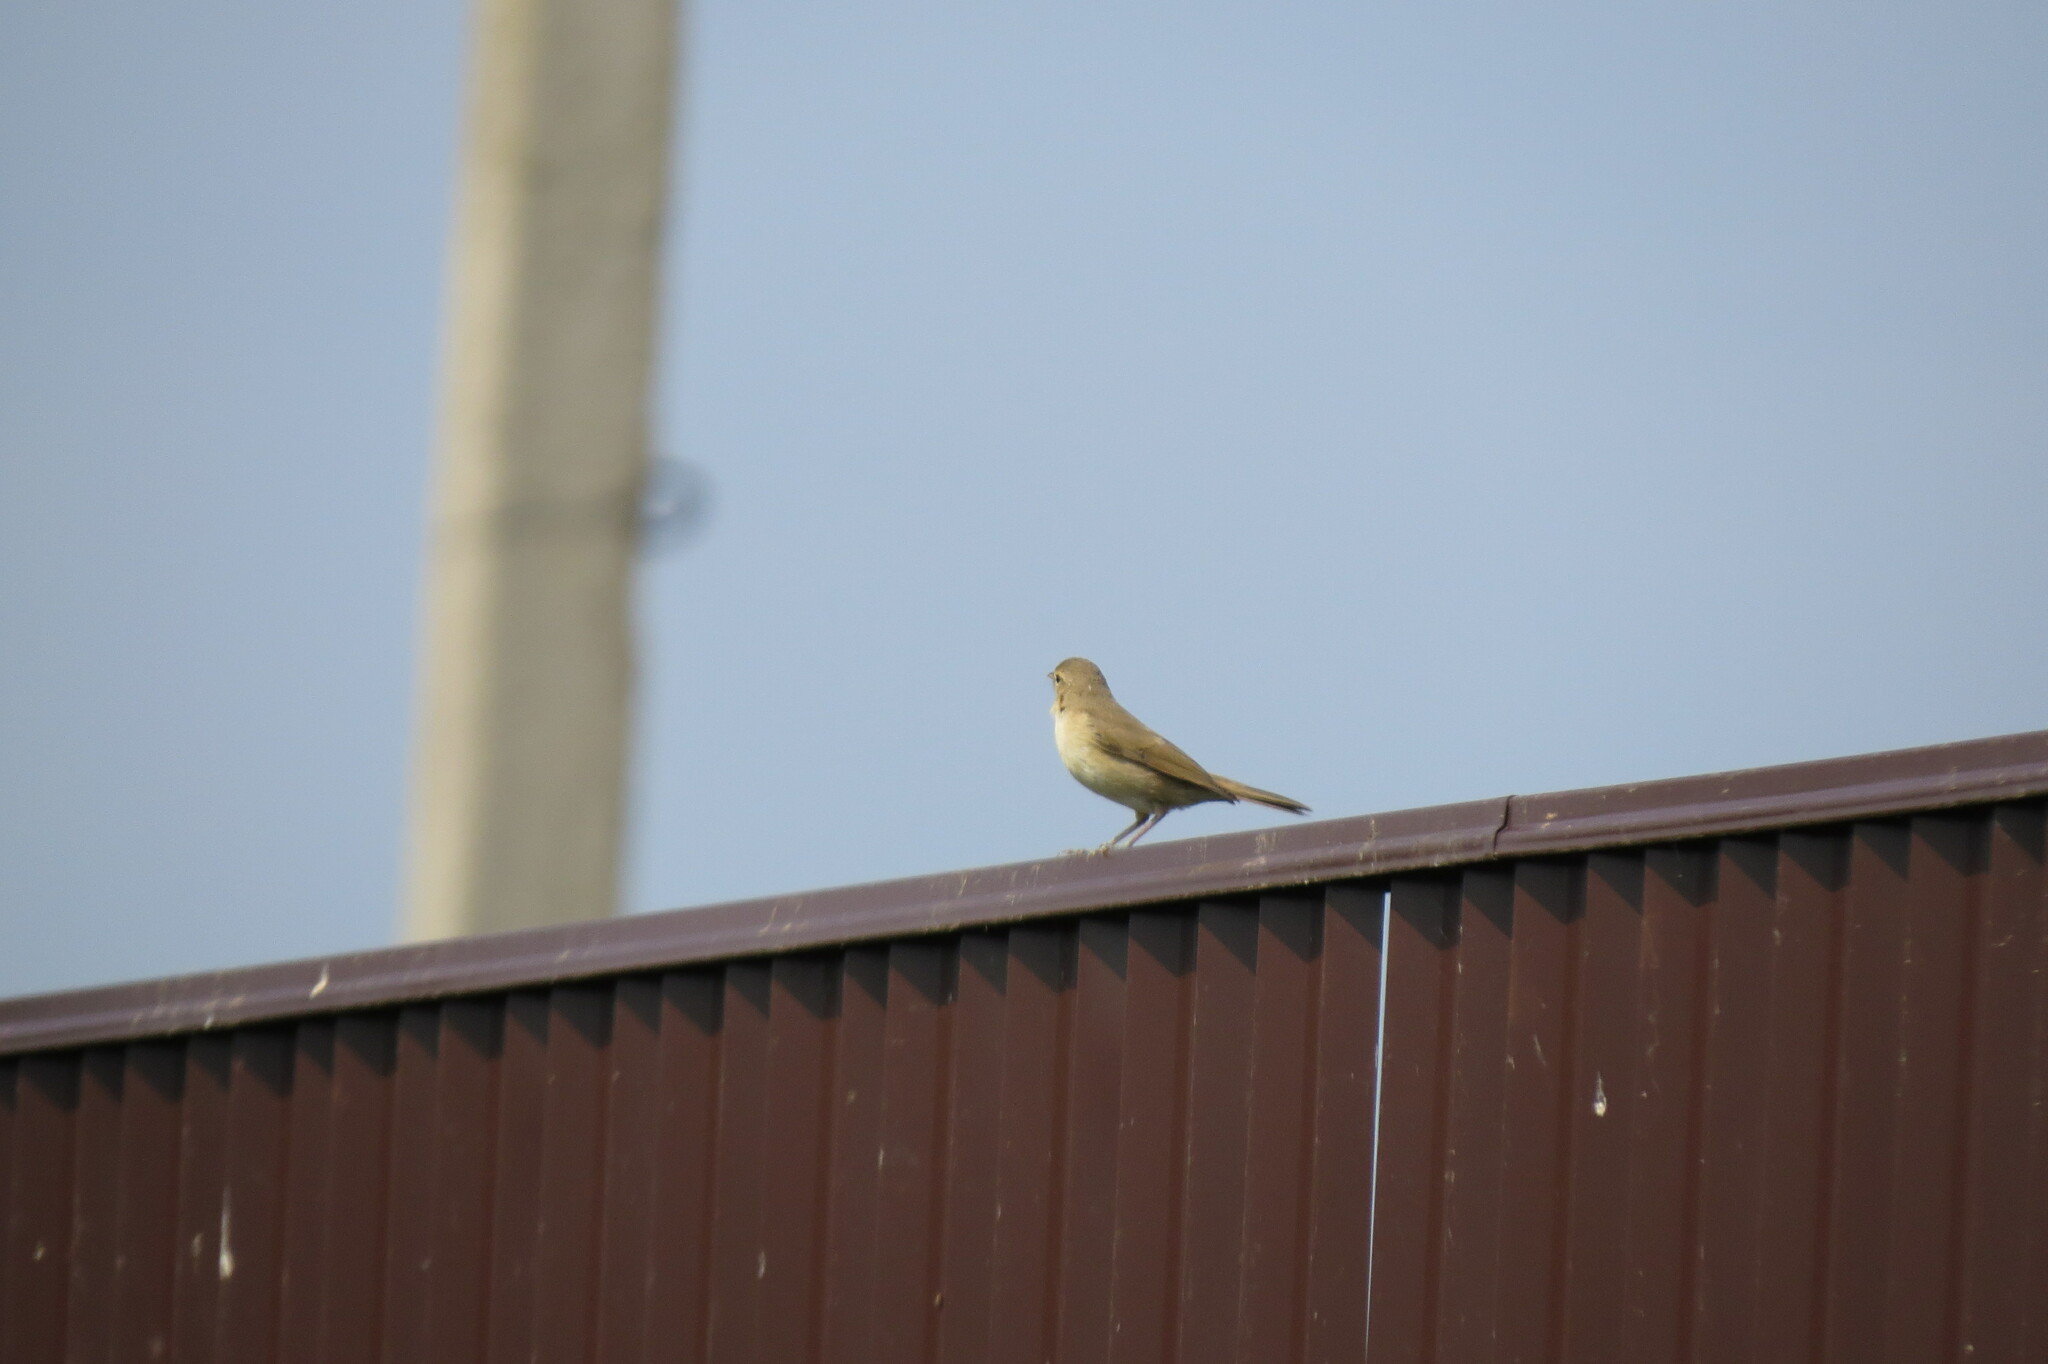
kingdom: Animalia
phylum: Chordata
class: Aves
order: Passeriformes
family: Acrocephalidae
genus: Iduna
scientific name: Iduna caligata
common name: Booted warbler
